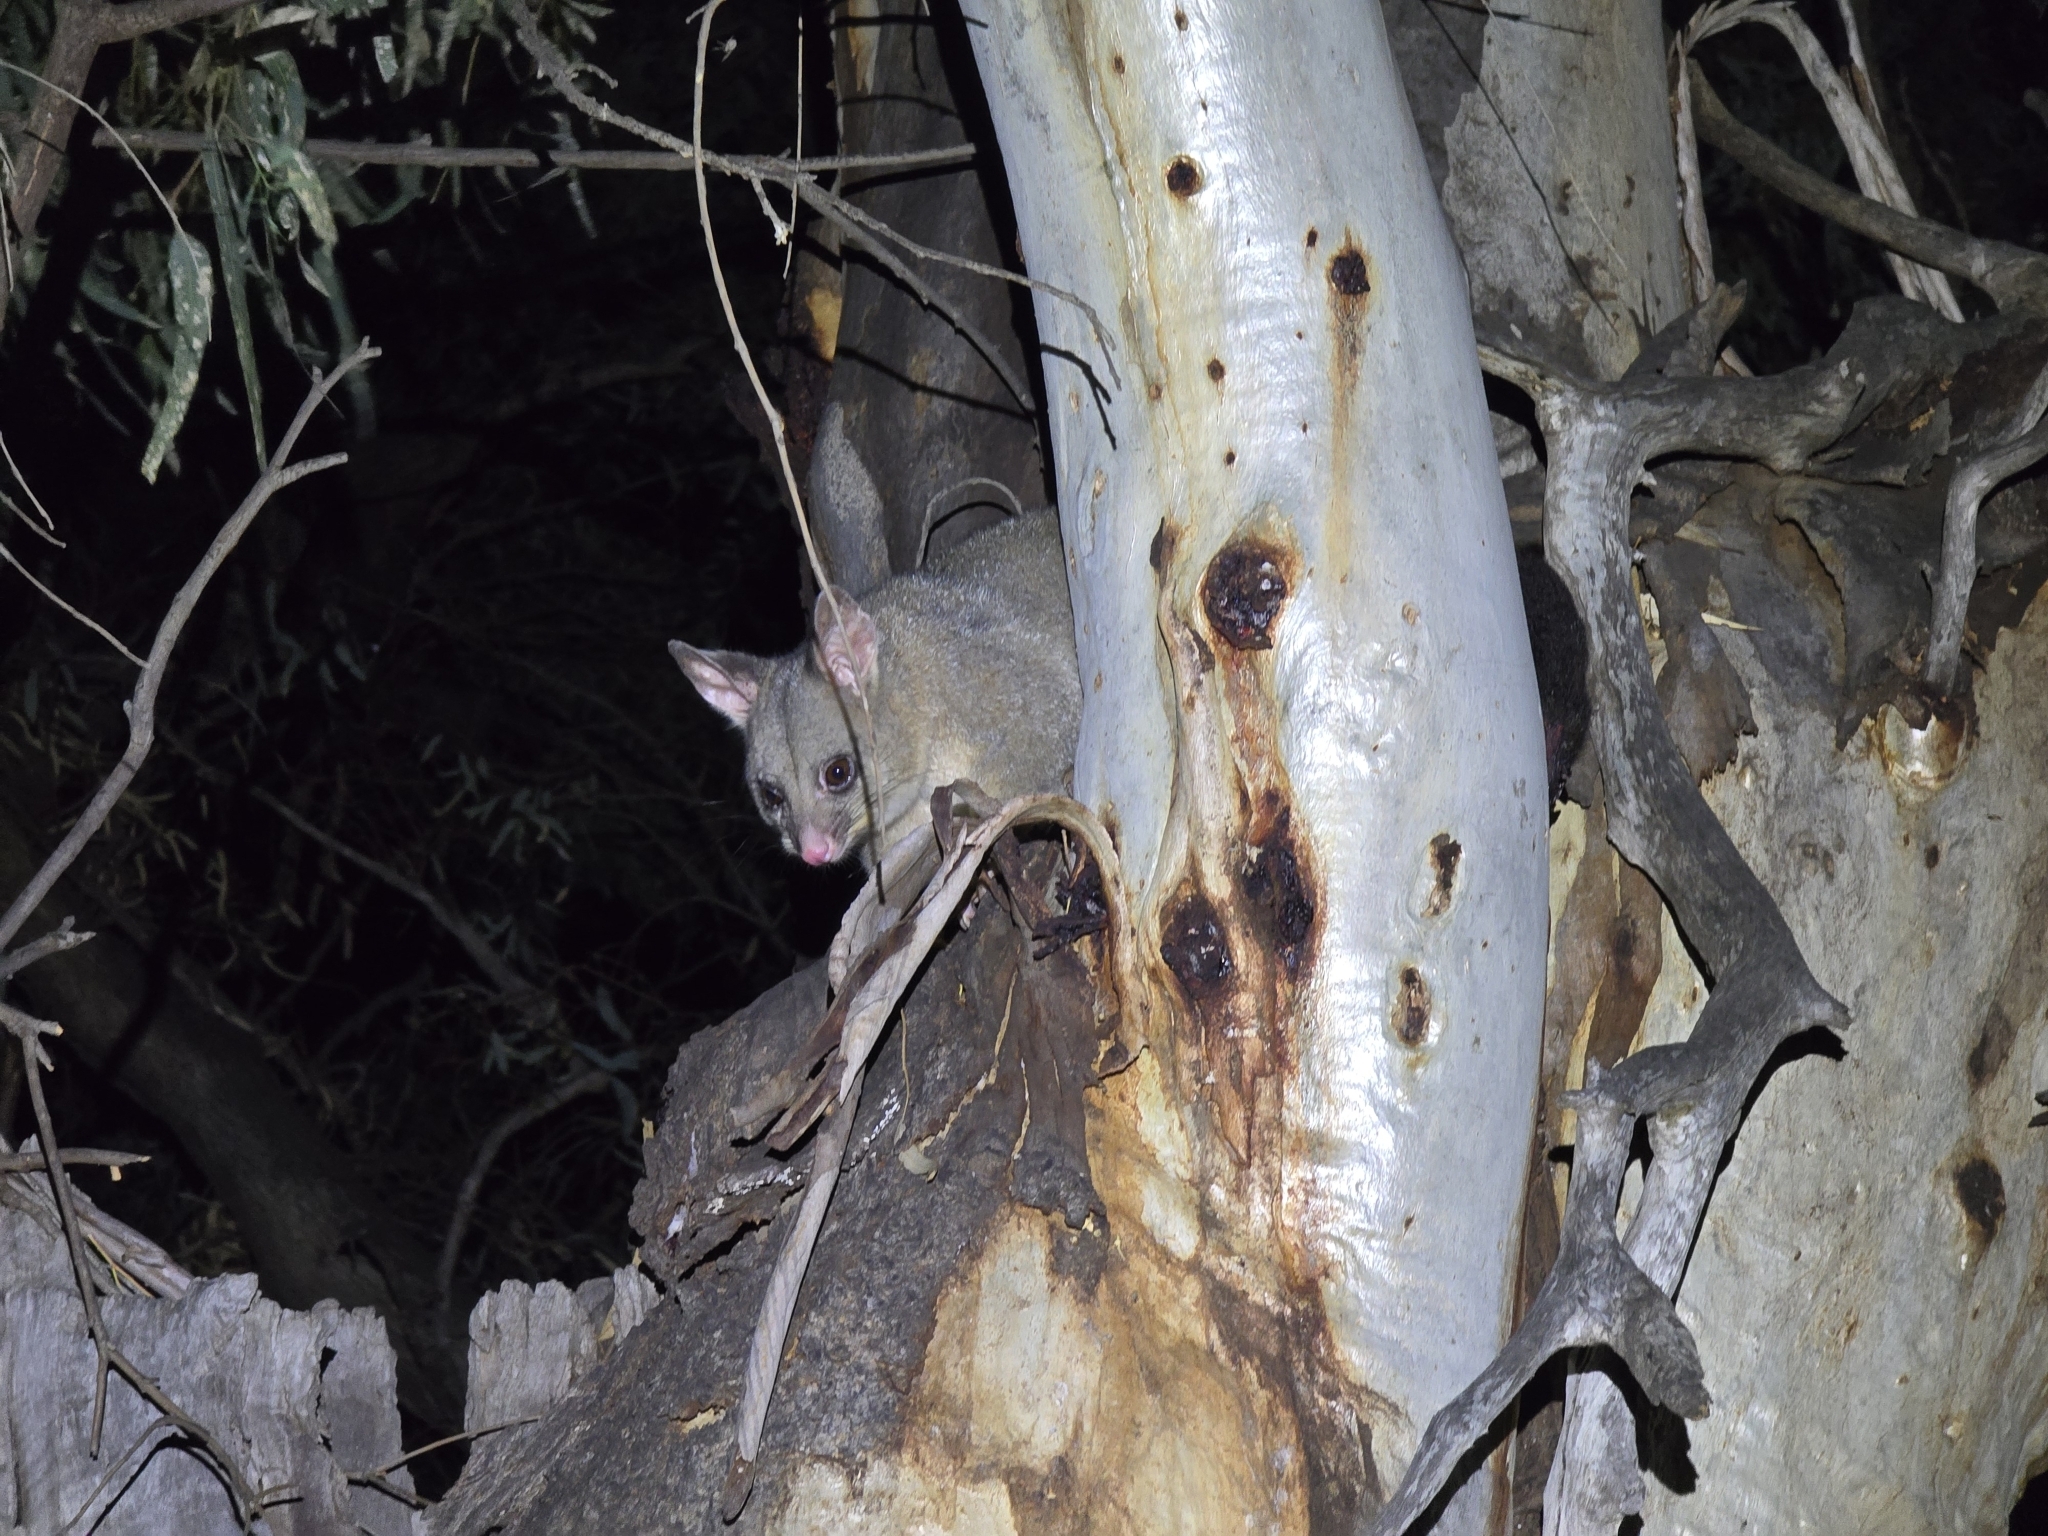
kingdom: Animalia
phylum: Chordata
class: Mammalia
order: Diprotodontia
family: Phalangeridae
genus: Trichosurus
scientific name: Trichosurus vulpecula
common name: Common brushtail
